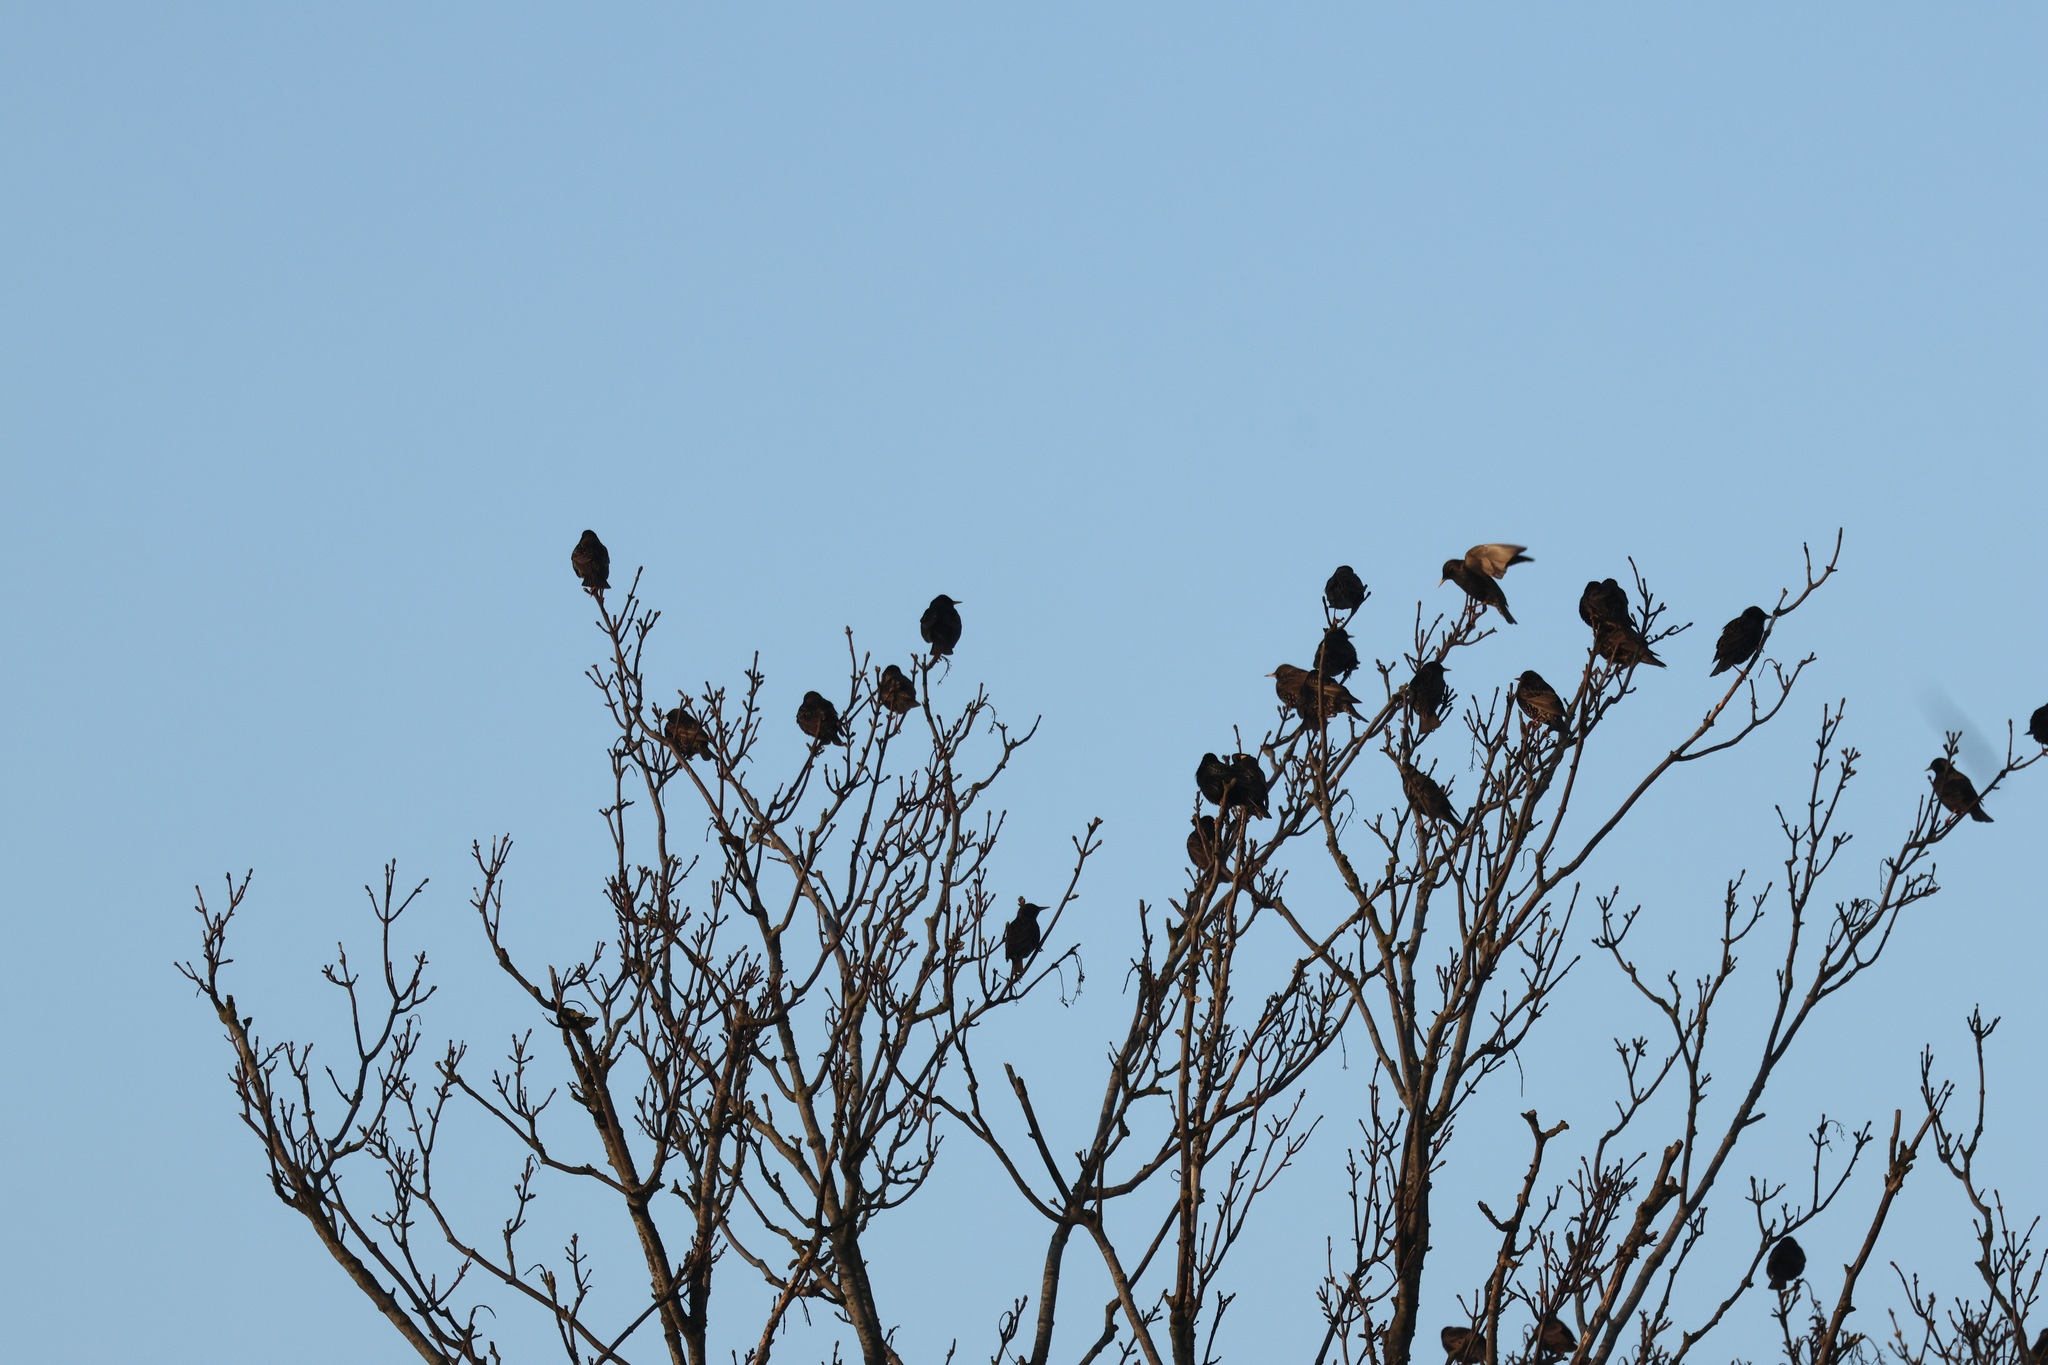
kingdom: Animalia
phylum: Chordata
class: Aves
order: Passeriformes
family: Sturnidae
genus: Sturnus
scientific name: Sturnus vulgaris
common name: Common starling
